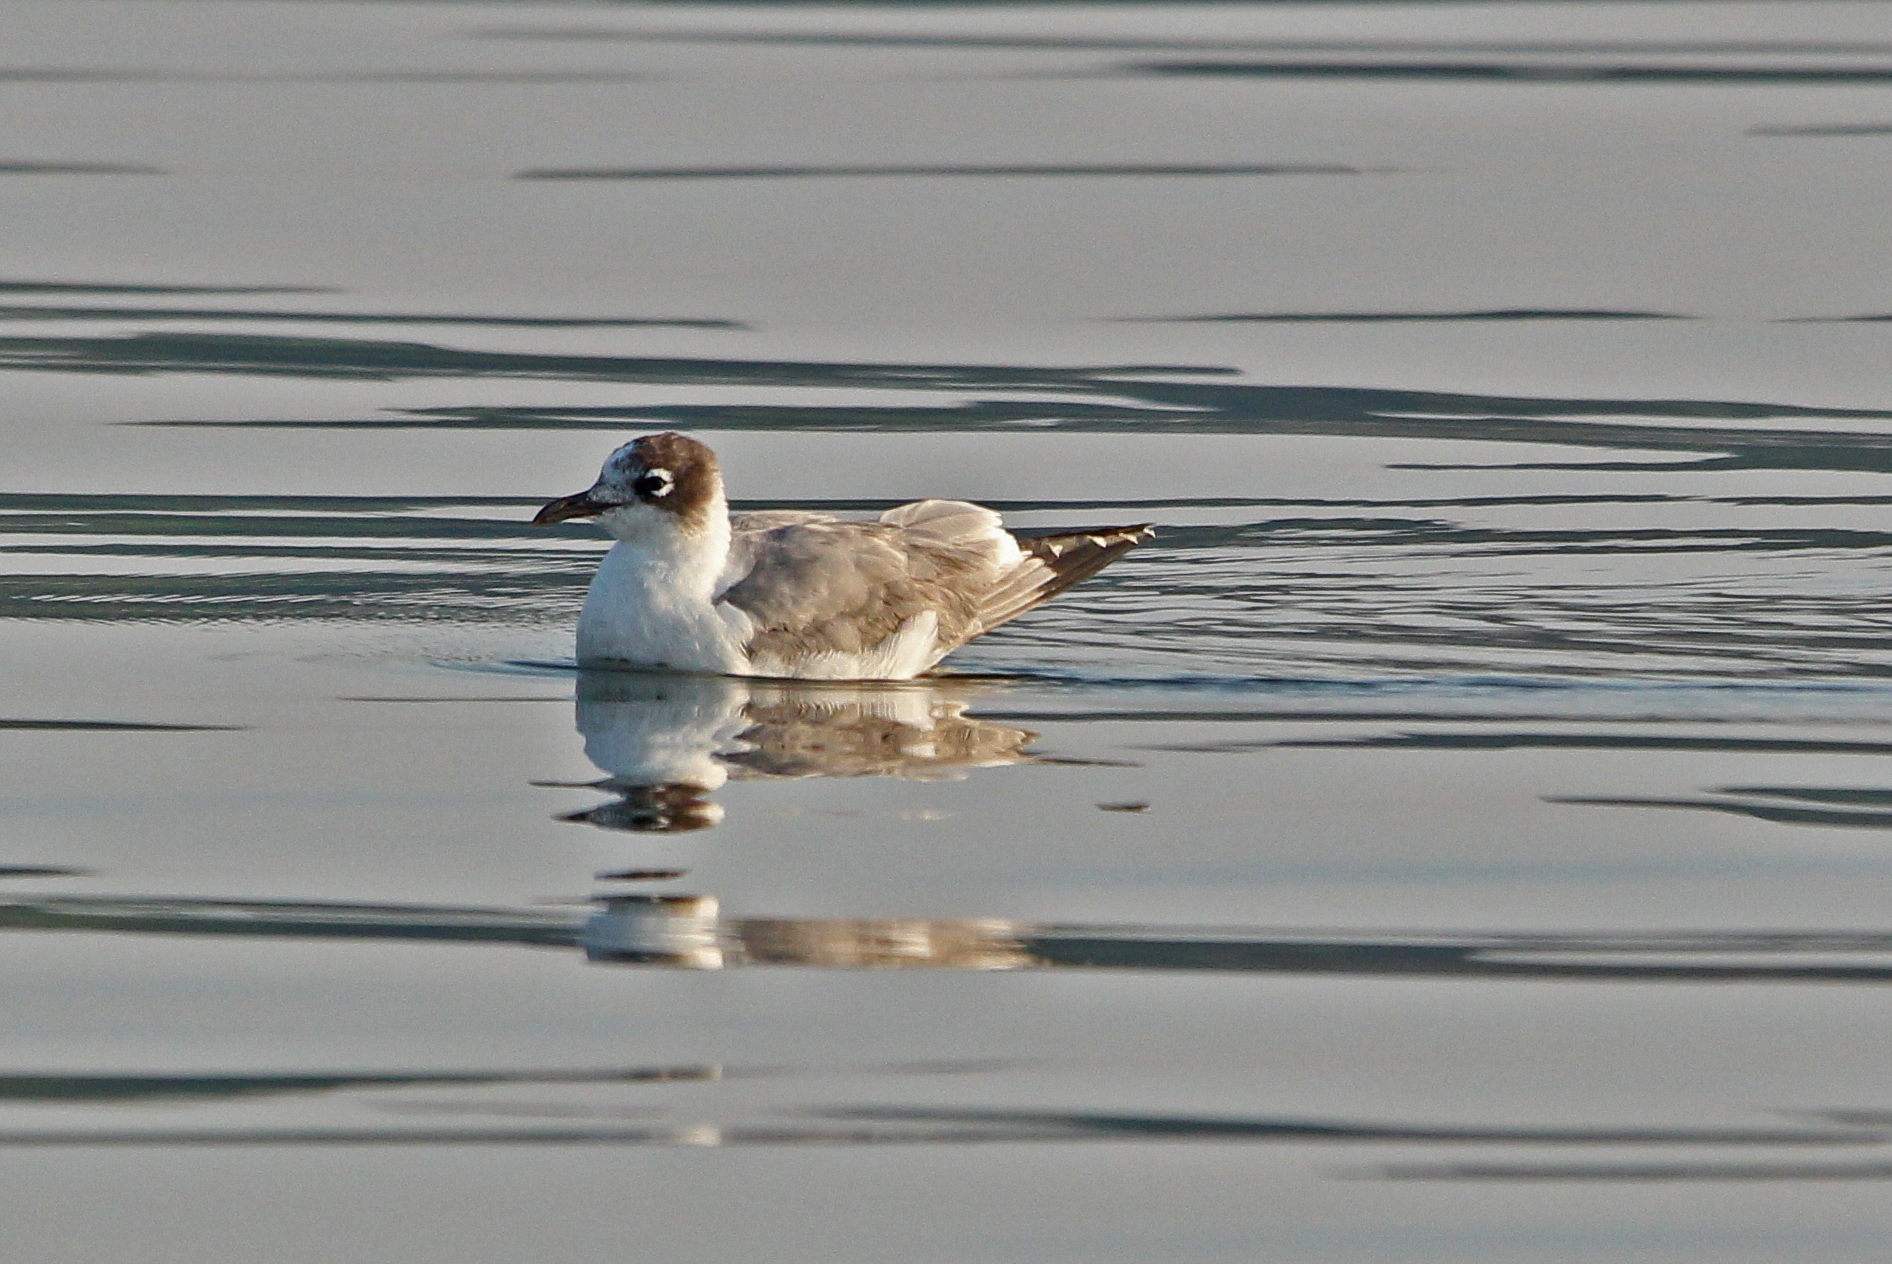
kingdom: Animalia
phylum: Chordata
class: Aves
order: Charadriiformes
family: Laridae
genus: Leucophaeus
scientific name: Leucophaeus pipixcan
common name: Franklin's gull
